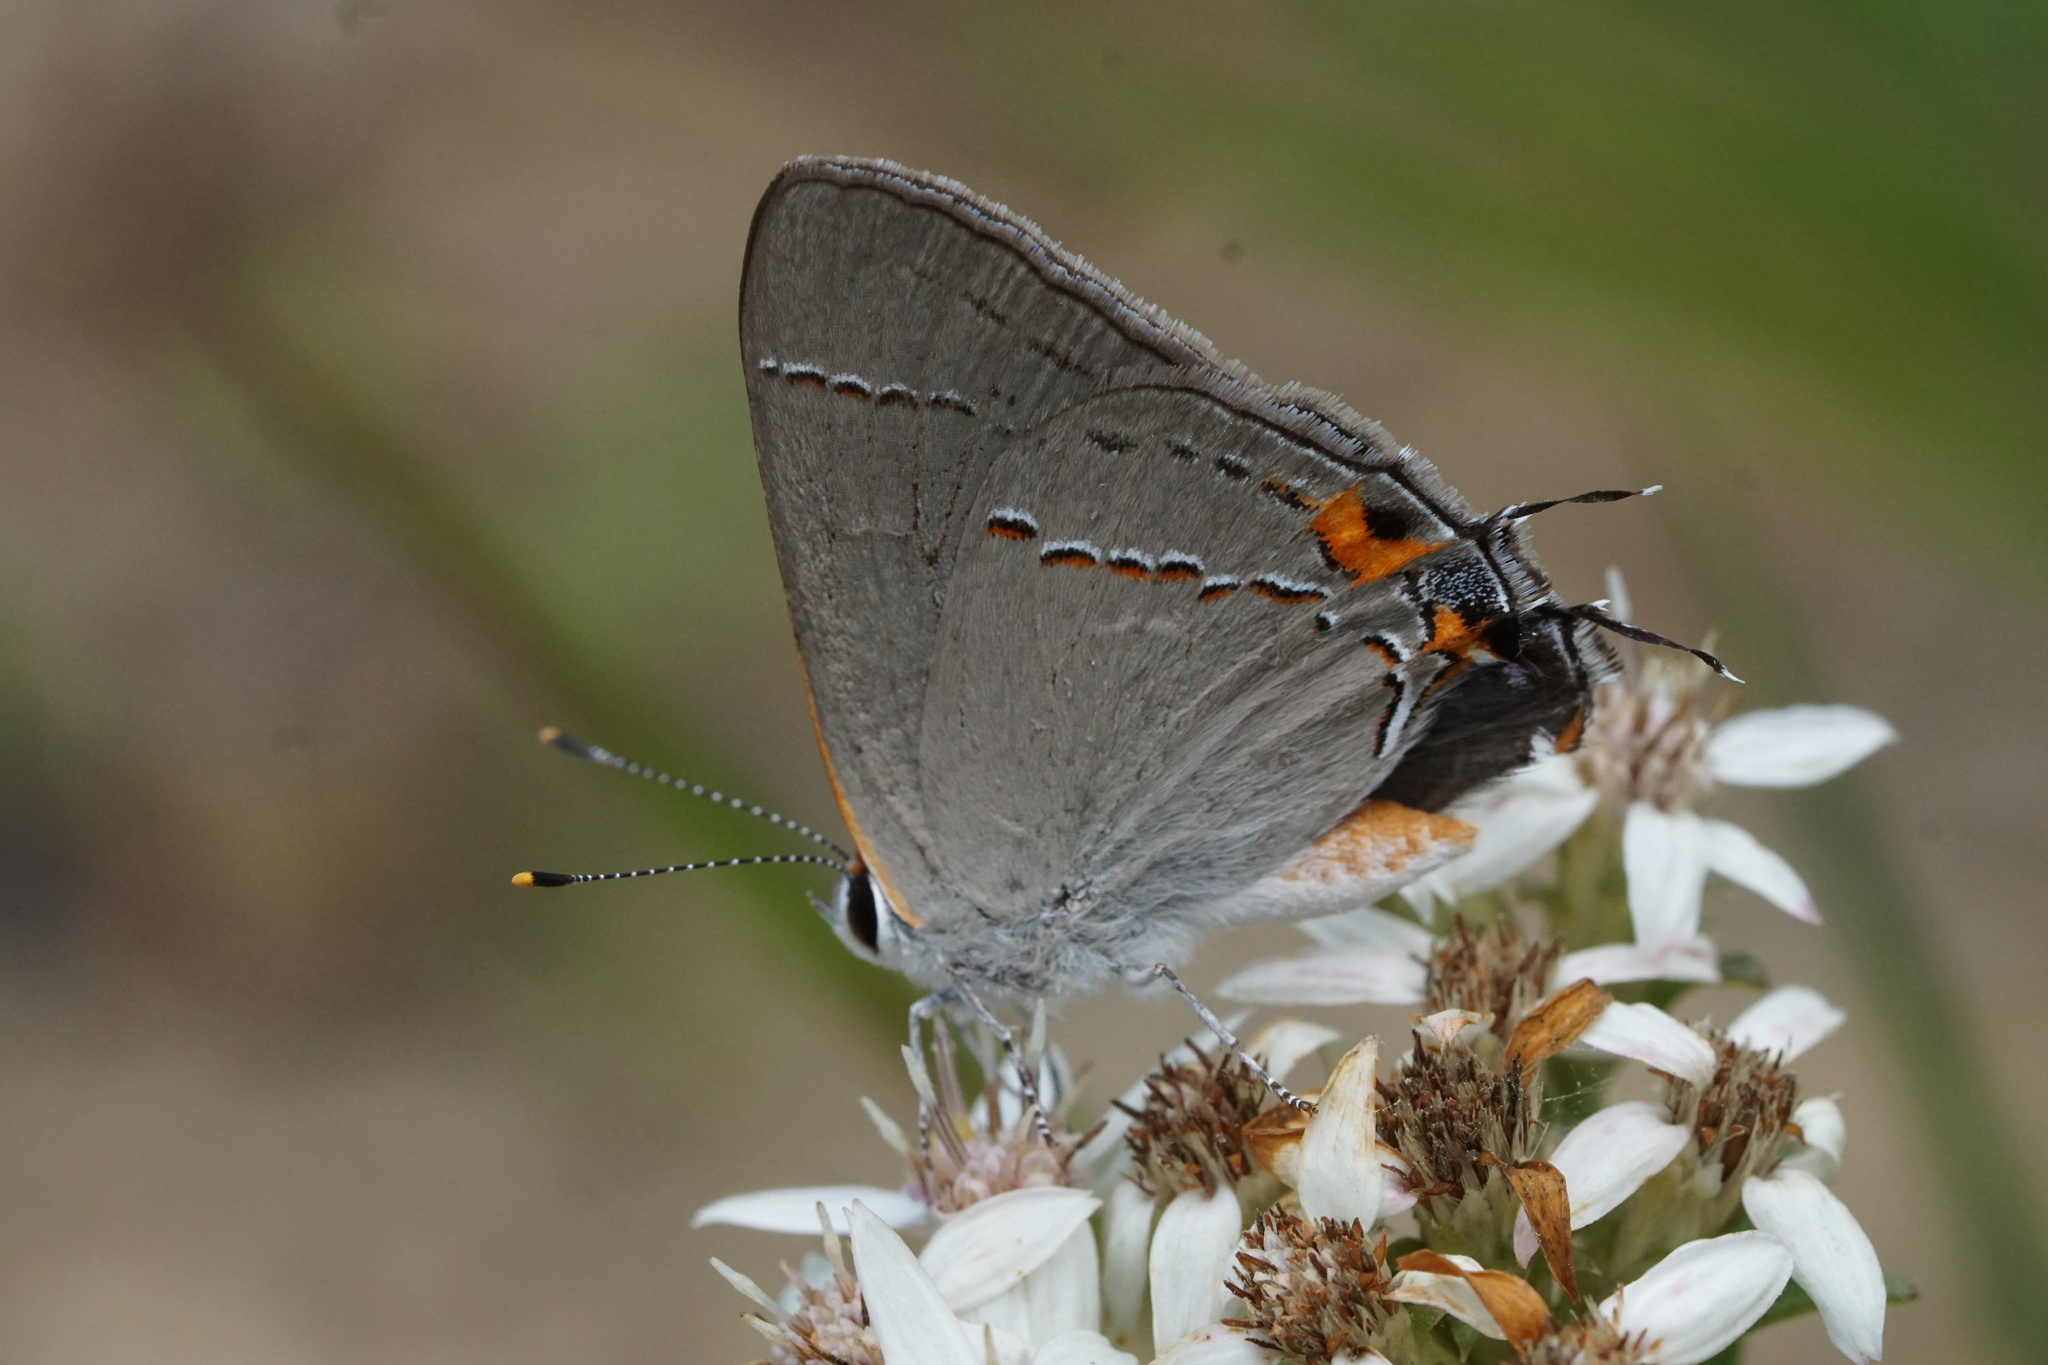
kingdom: Animalia
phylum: Arthropoda
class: Insecta
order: Lepidoptera
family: Lycaenidae
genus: Strymon
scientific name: Strymon melinus
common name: Gray hairstreak
